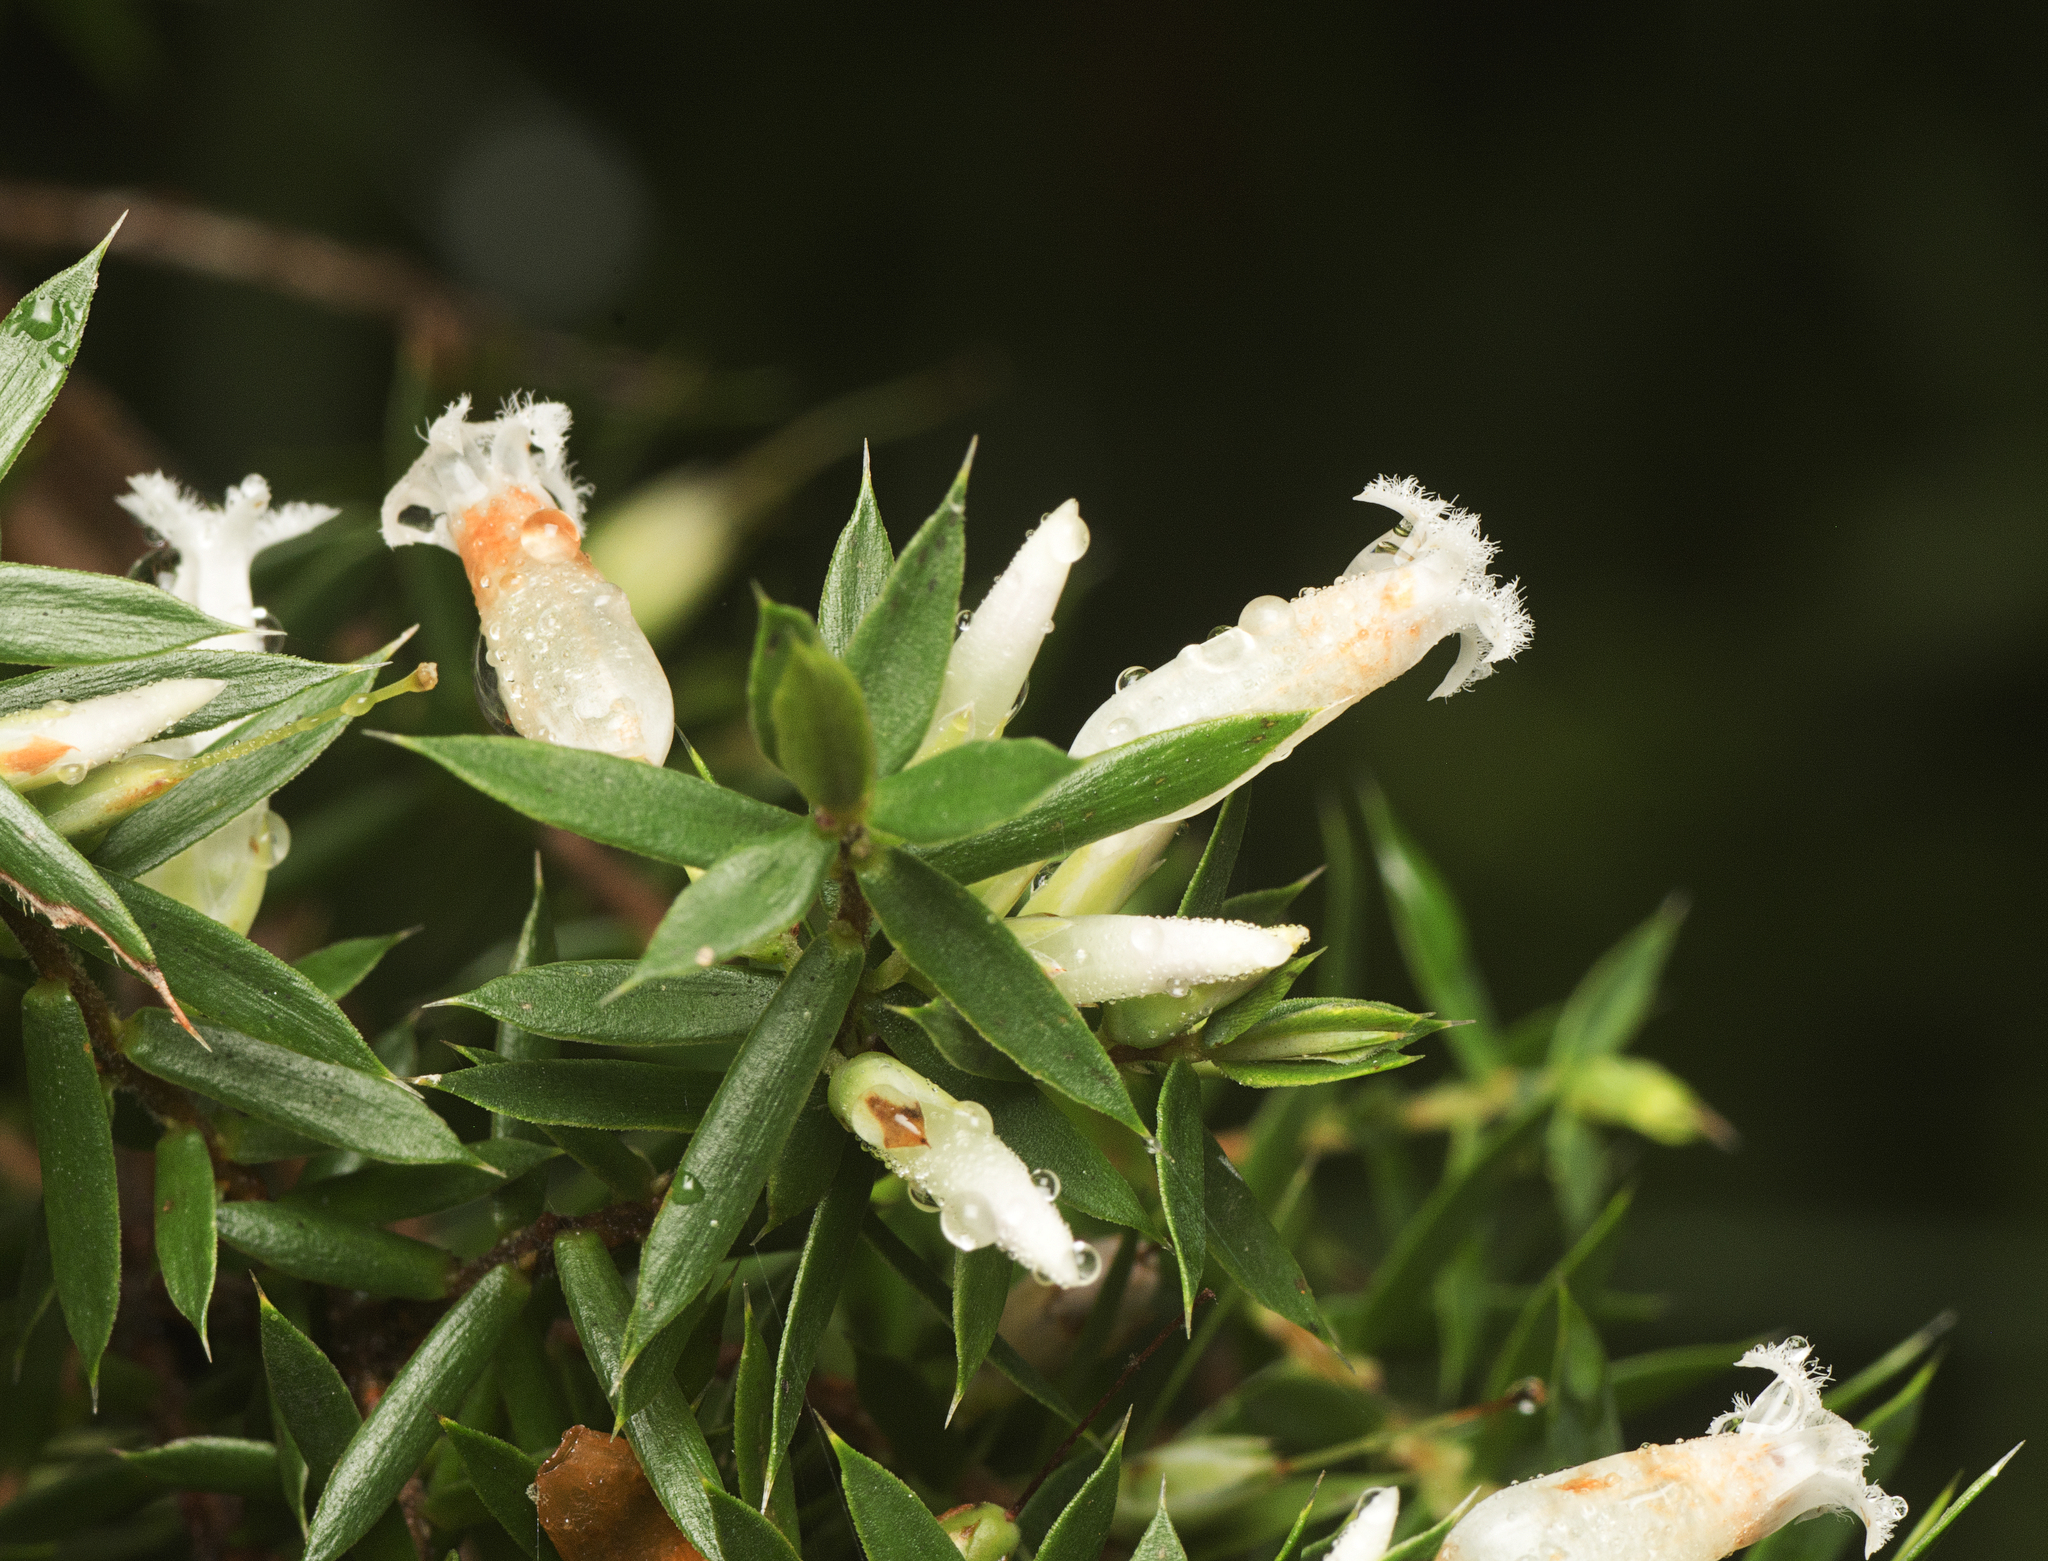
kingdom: Plantae
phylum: Tracheophyta
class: Magnoliopsida
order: Ericales
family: Ericaceae
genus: Styphelia
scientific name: Styphelia sieberi
